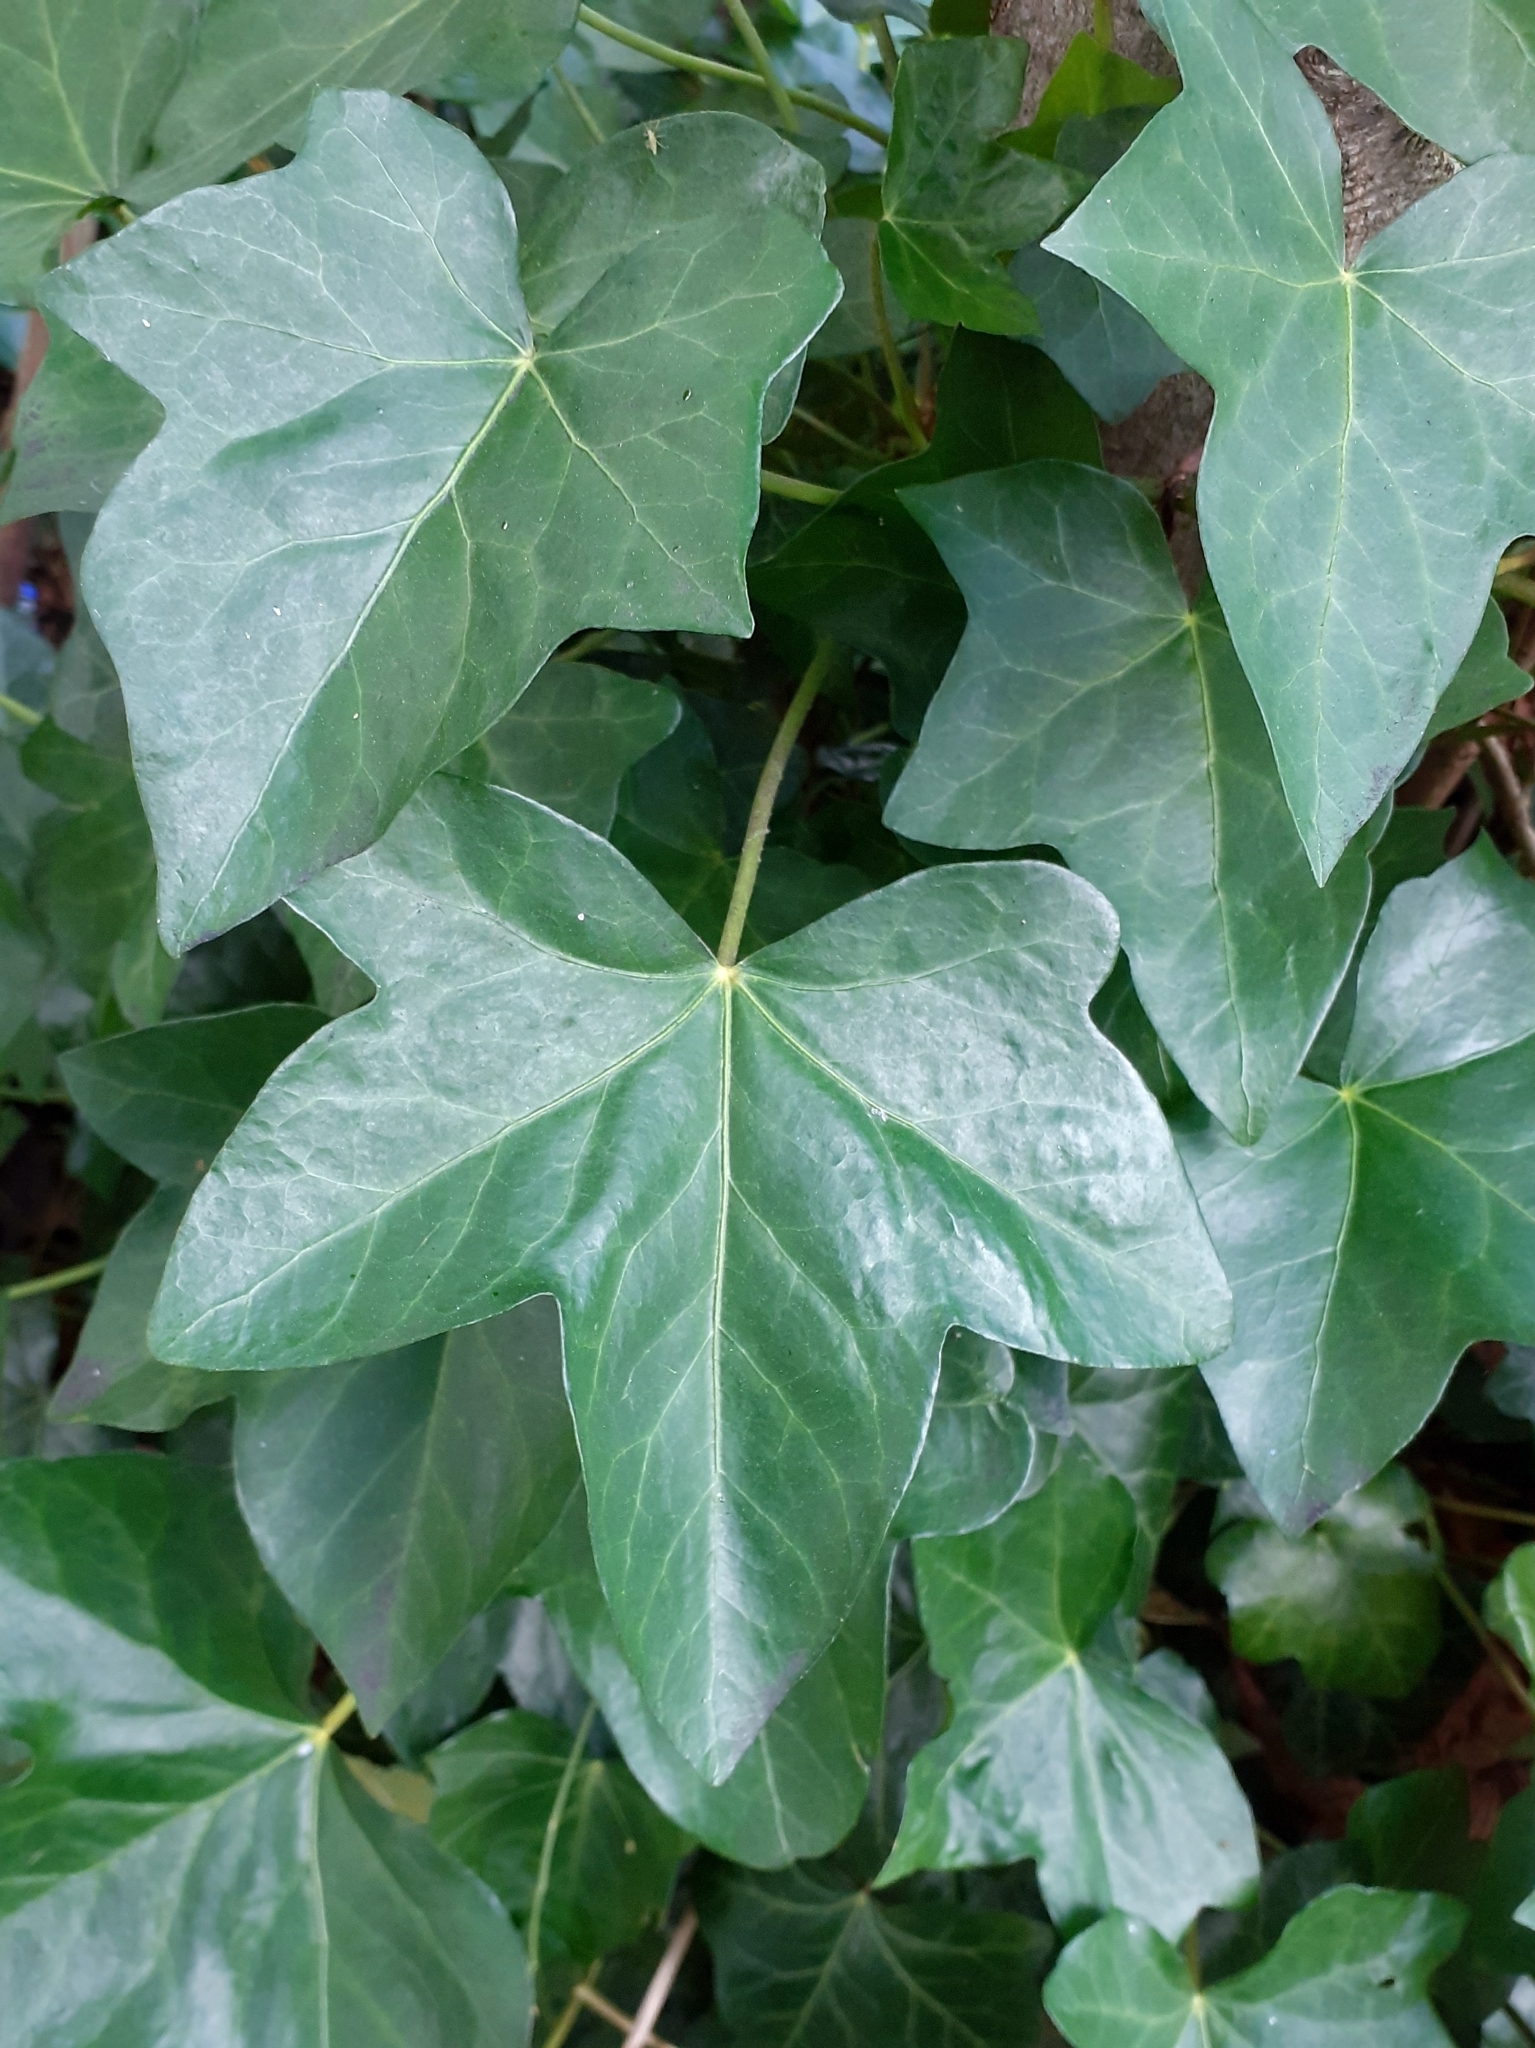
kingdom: Plantae
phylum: Tracheophyta
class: Magnoliopsida
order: Apiales
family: Araliaceae
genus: Hedera
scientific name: Hedera helix
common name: Ivy
